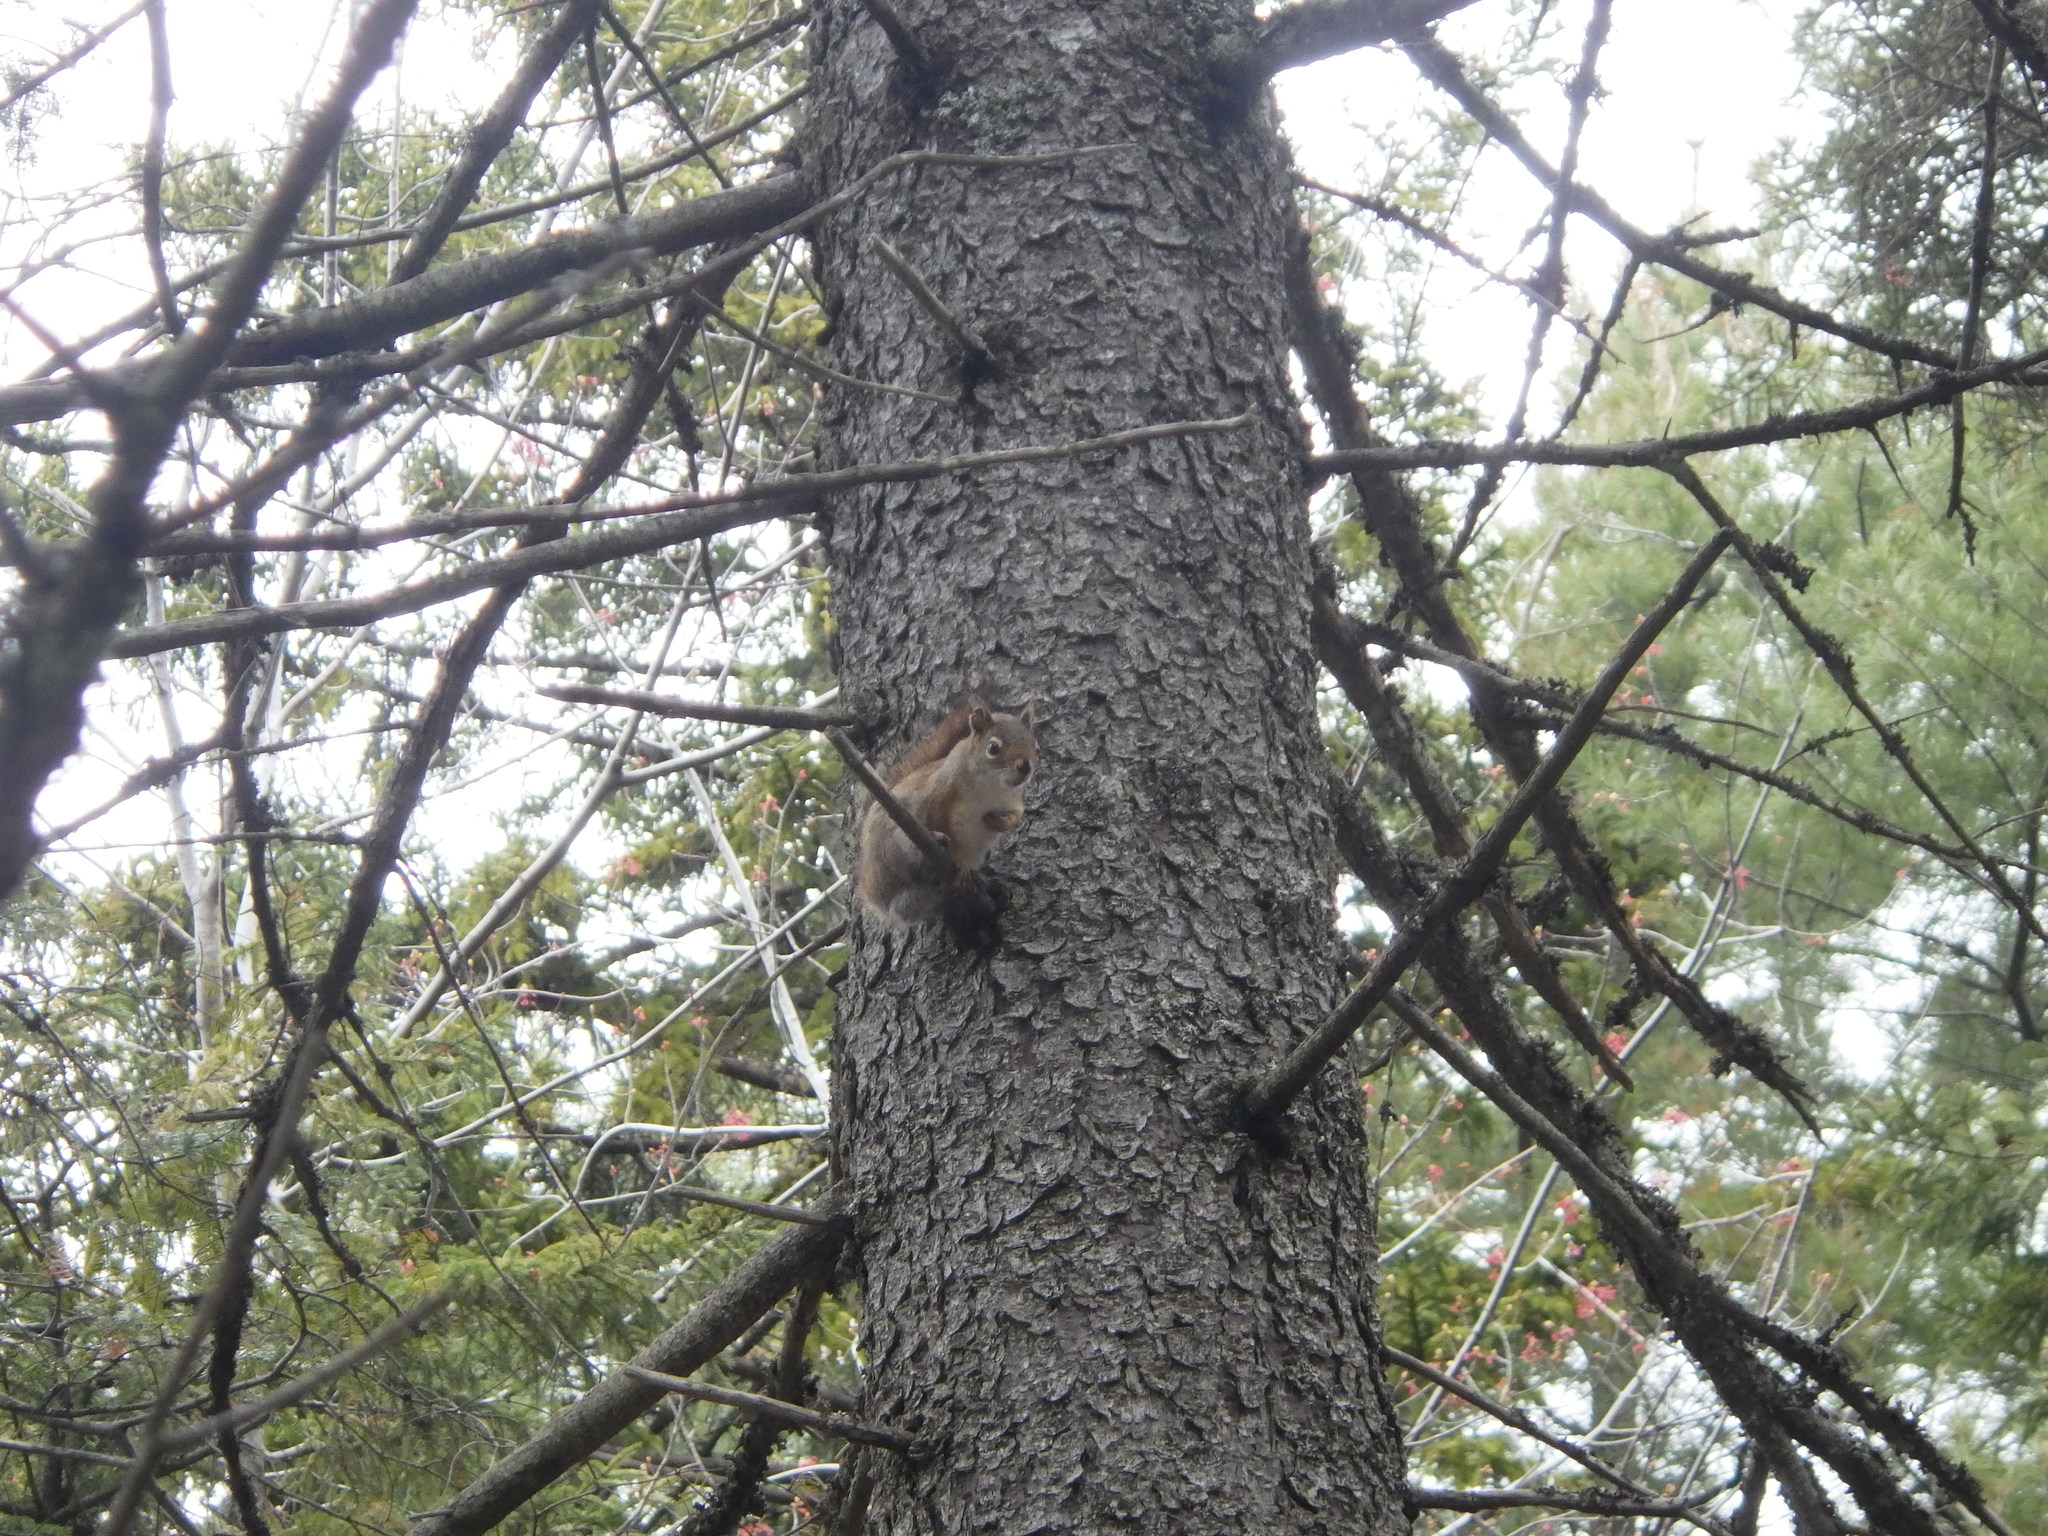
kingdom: Animalia
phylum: Chordata
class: Mammalia
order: Rodentia
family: Sciuridae
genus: Tamiasciurus
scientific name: Tamiasciurus hudsonicus
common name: Red squirrel
